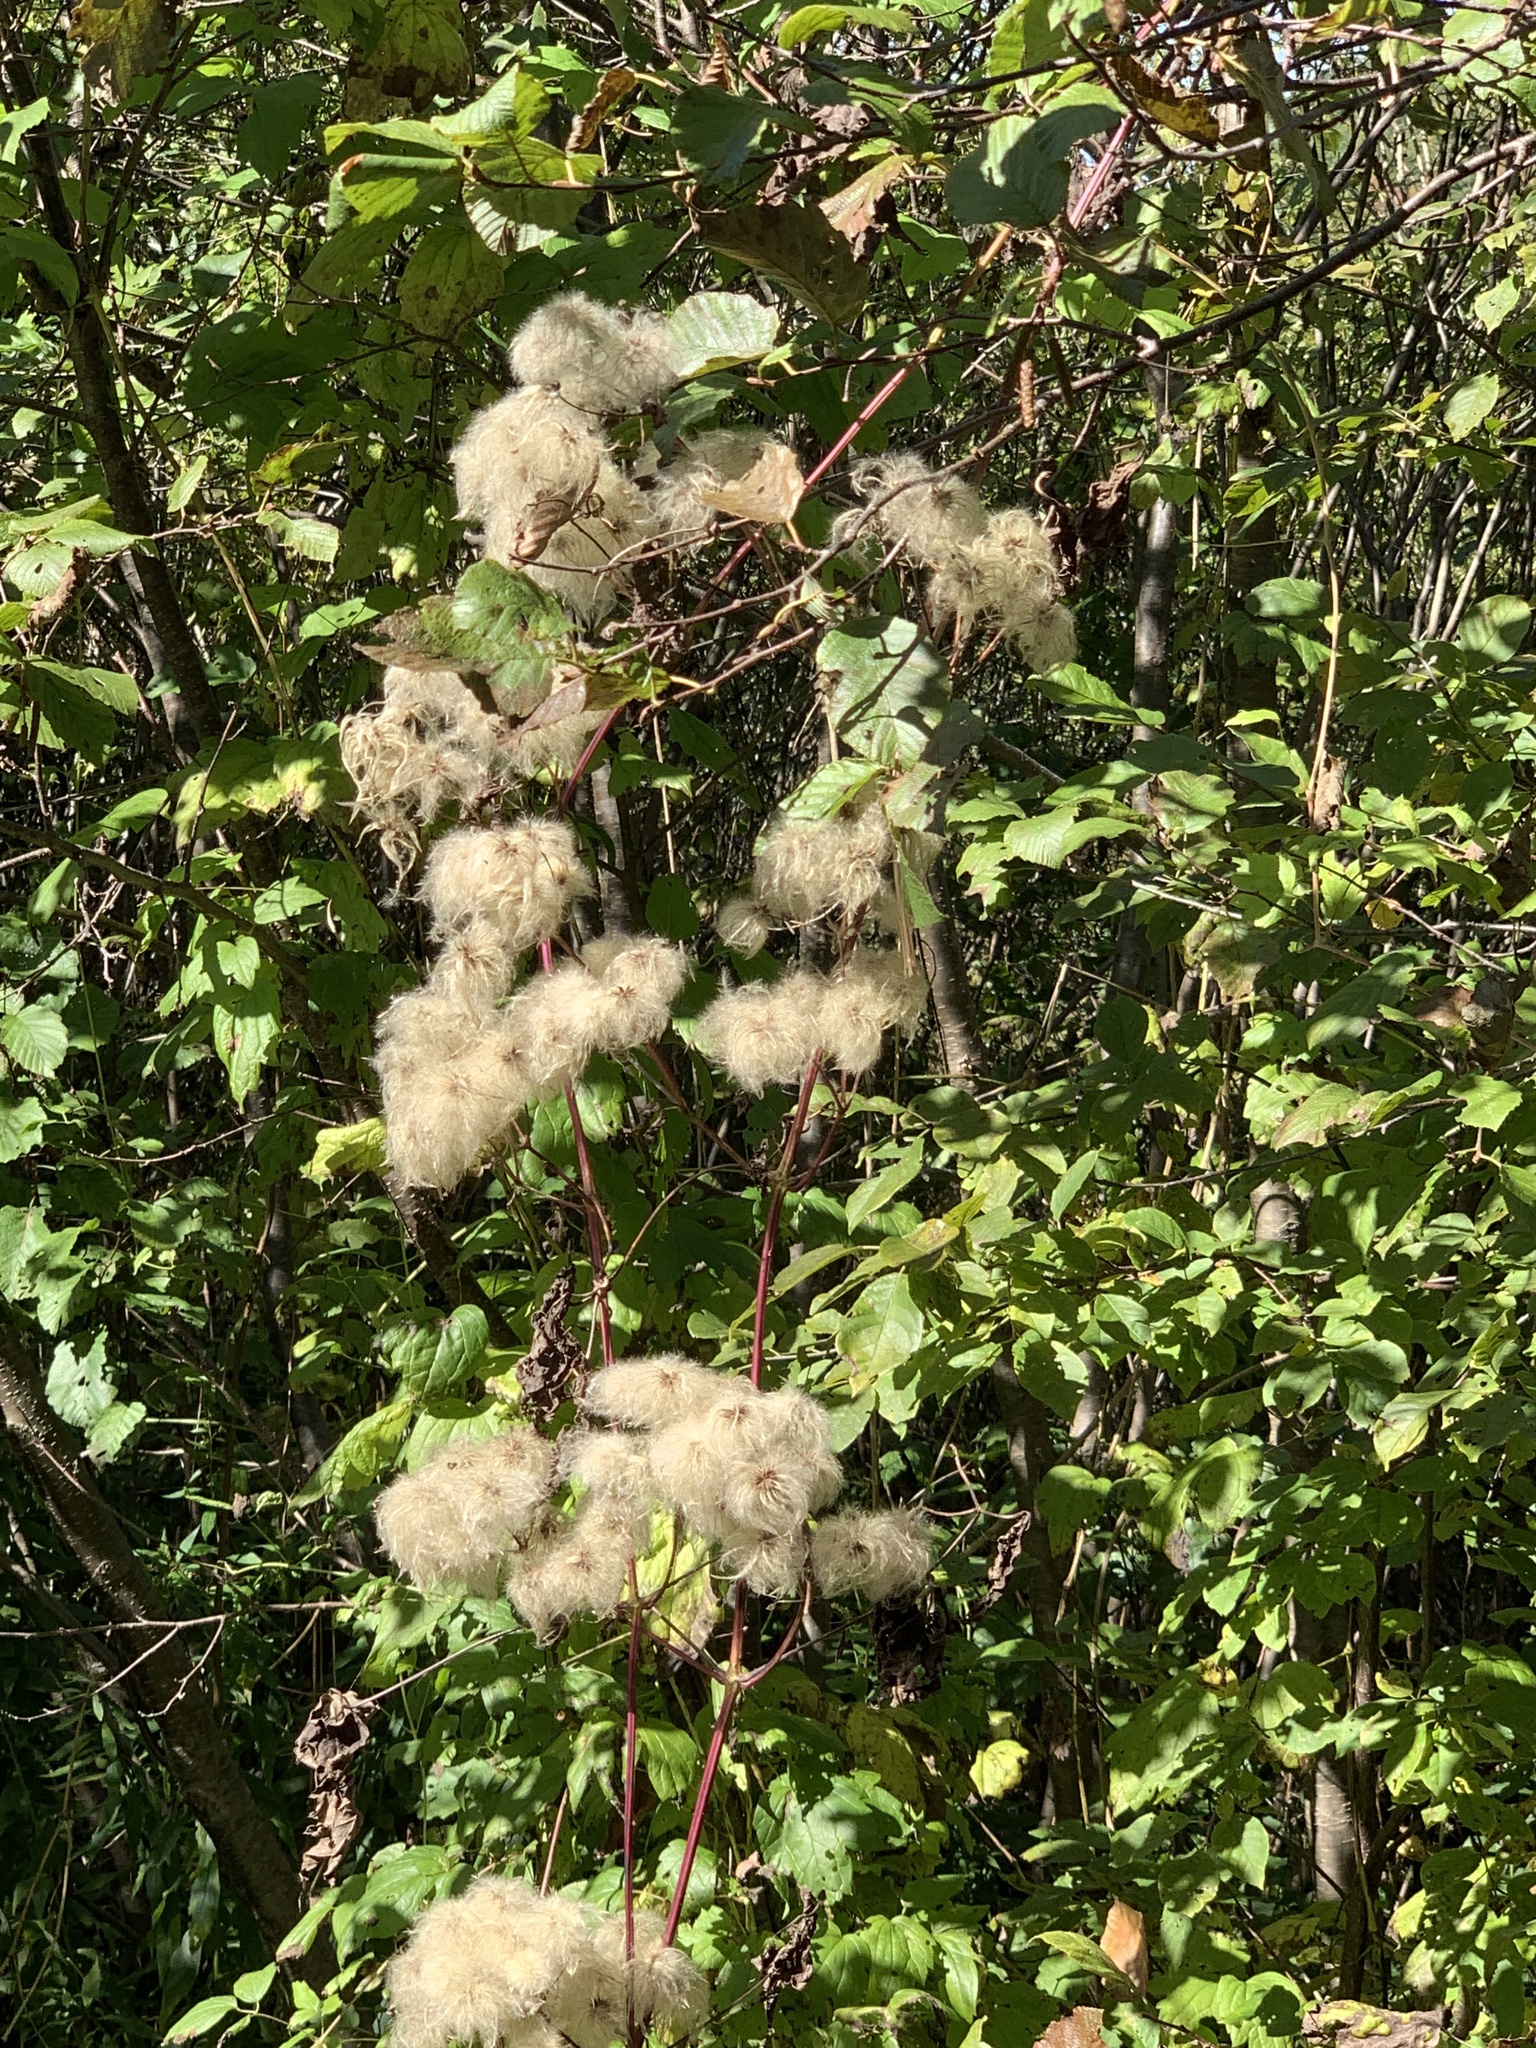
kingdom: Plantae
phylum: Tracheophyta
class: Magnoliopsida
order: Ranunculales
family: Ranunculaceae
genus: Clematis
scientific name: Clematis virginiana
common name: Virgin's-bower
